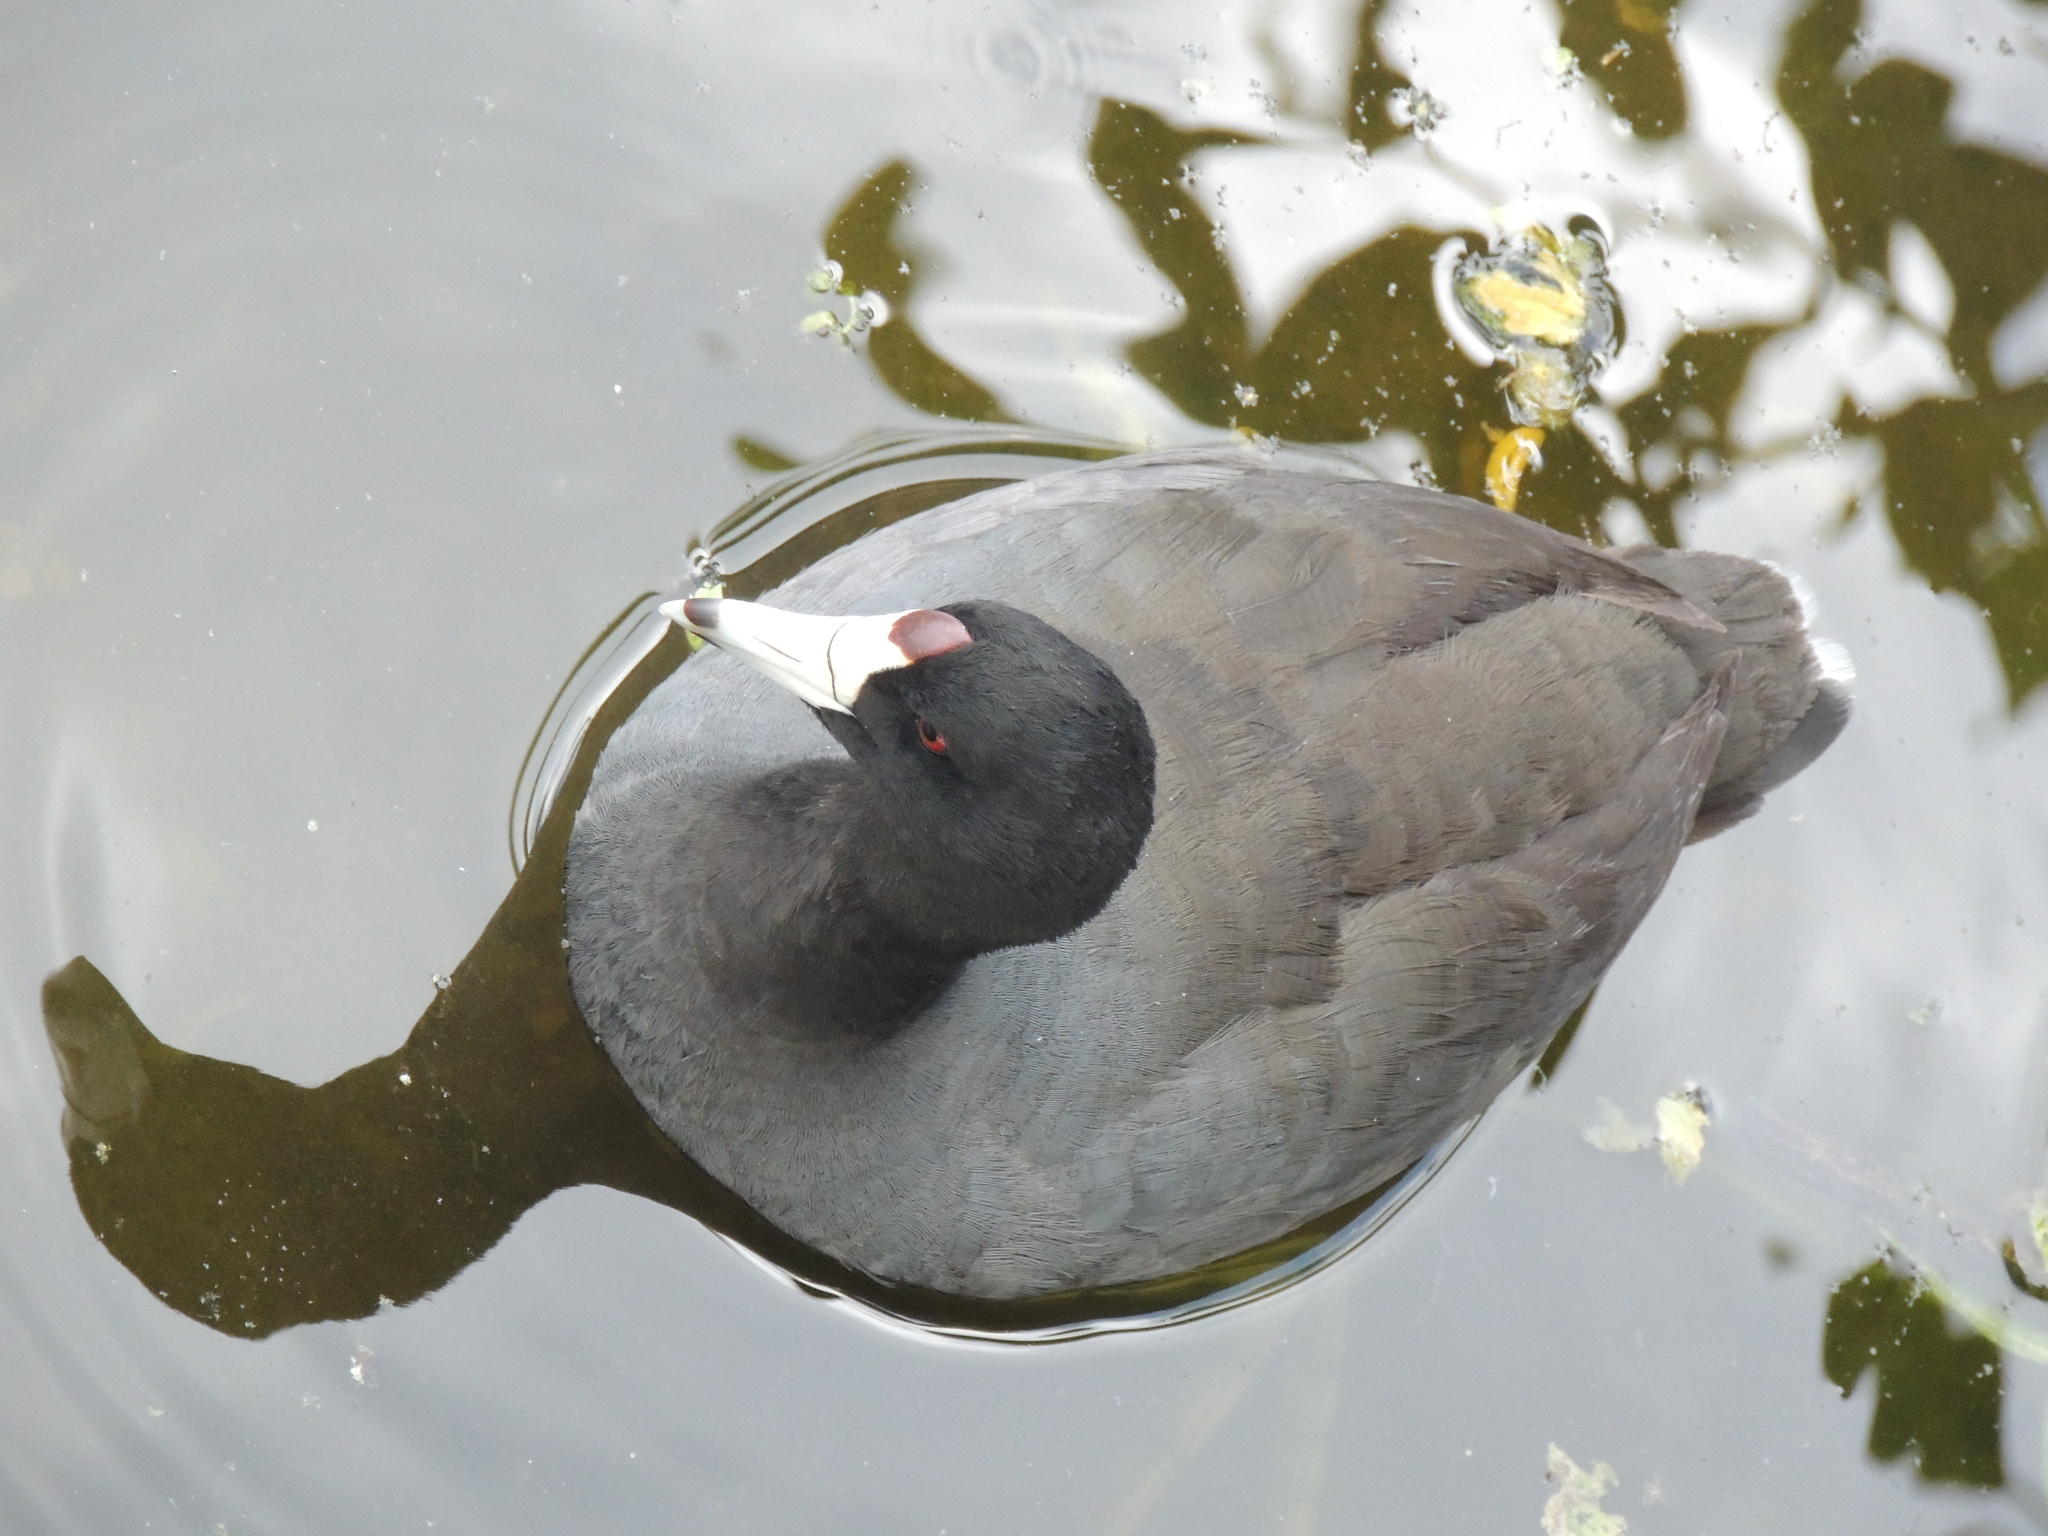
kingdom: Animalia
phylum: Chordata
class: Aves
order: Gruiformes
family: Rallidae
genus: Fulica
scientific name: Fulica americana
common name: American coot
